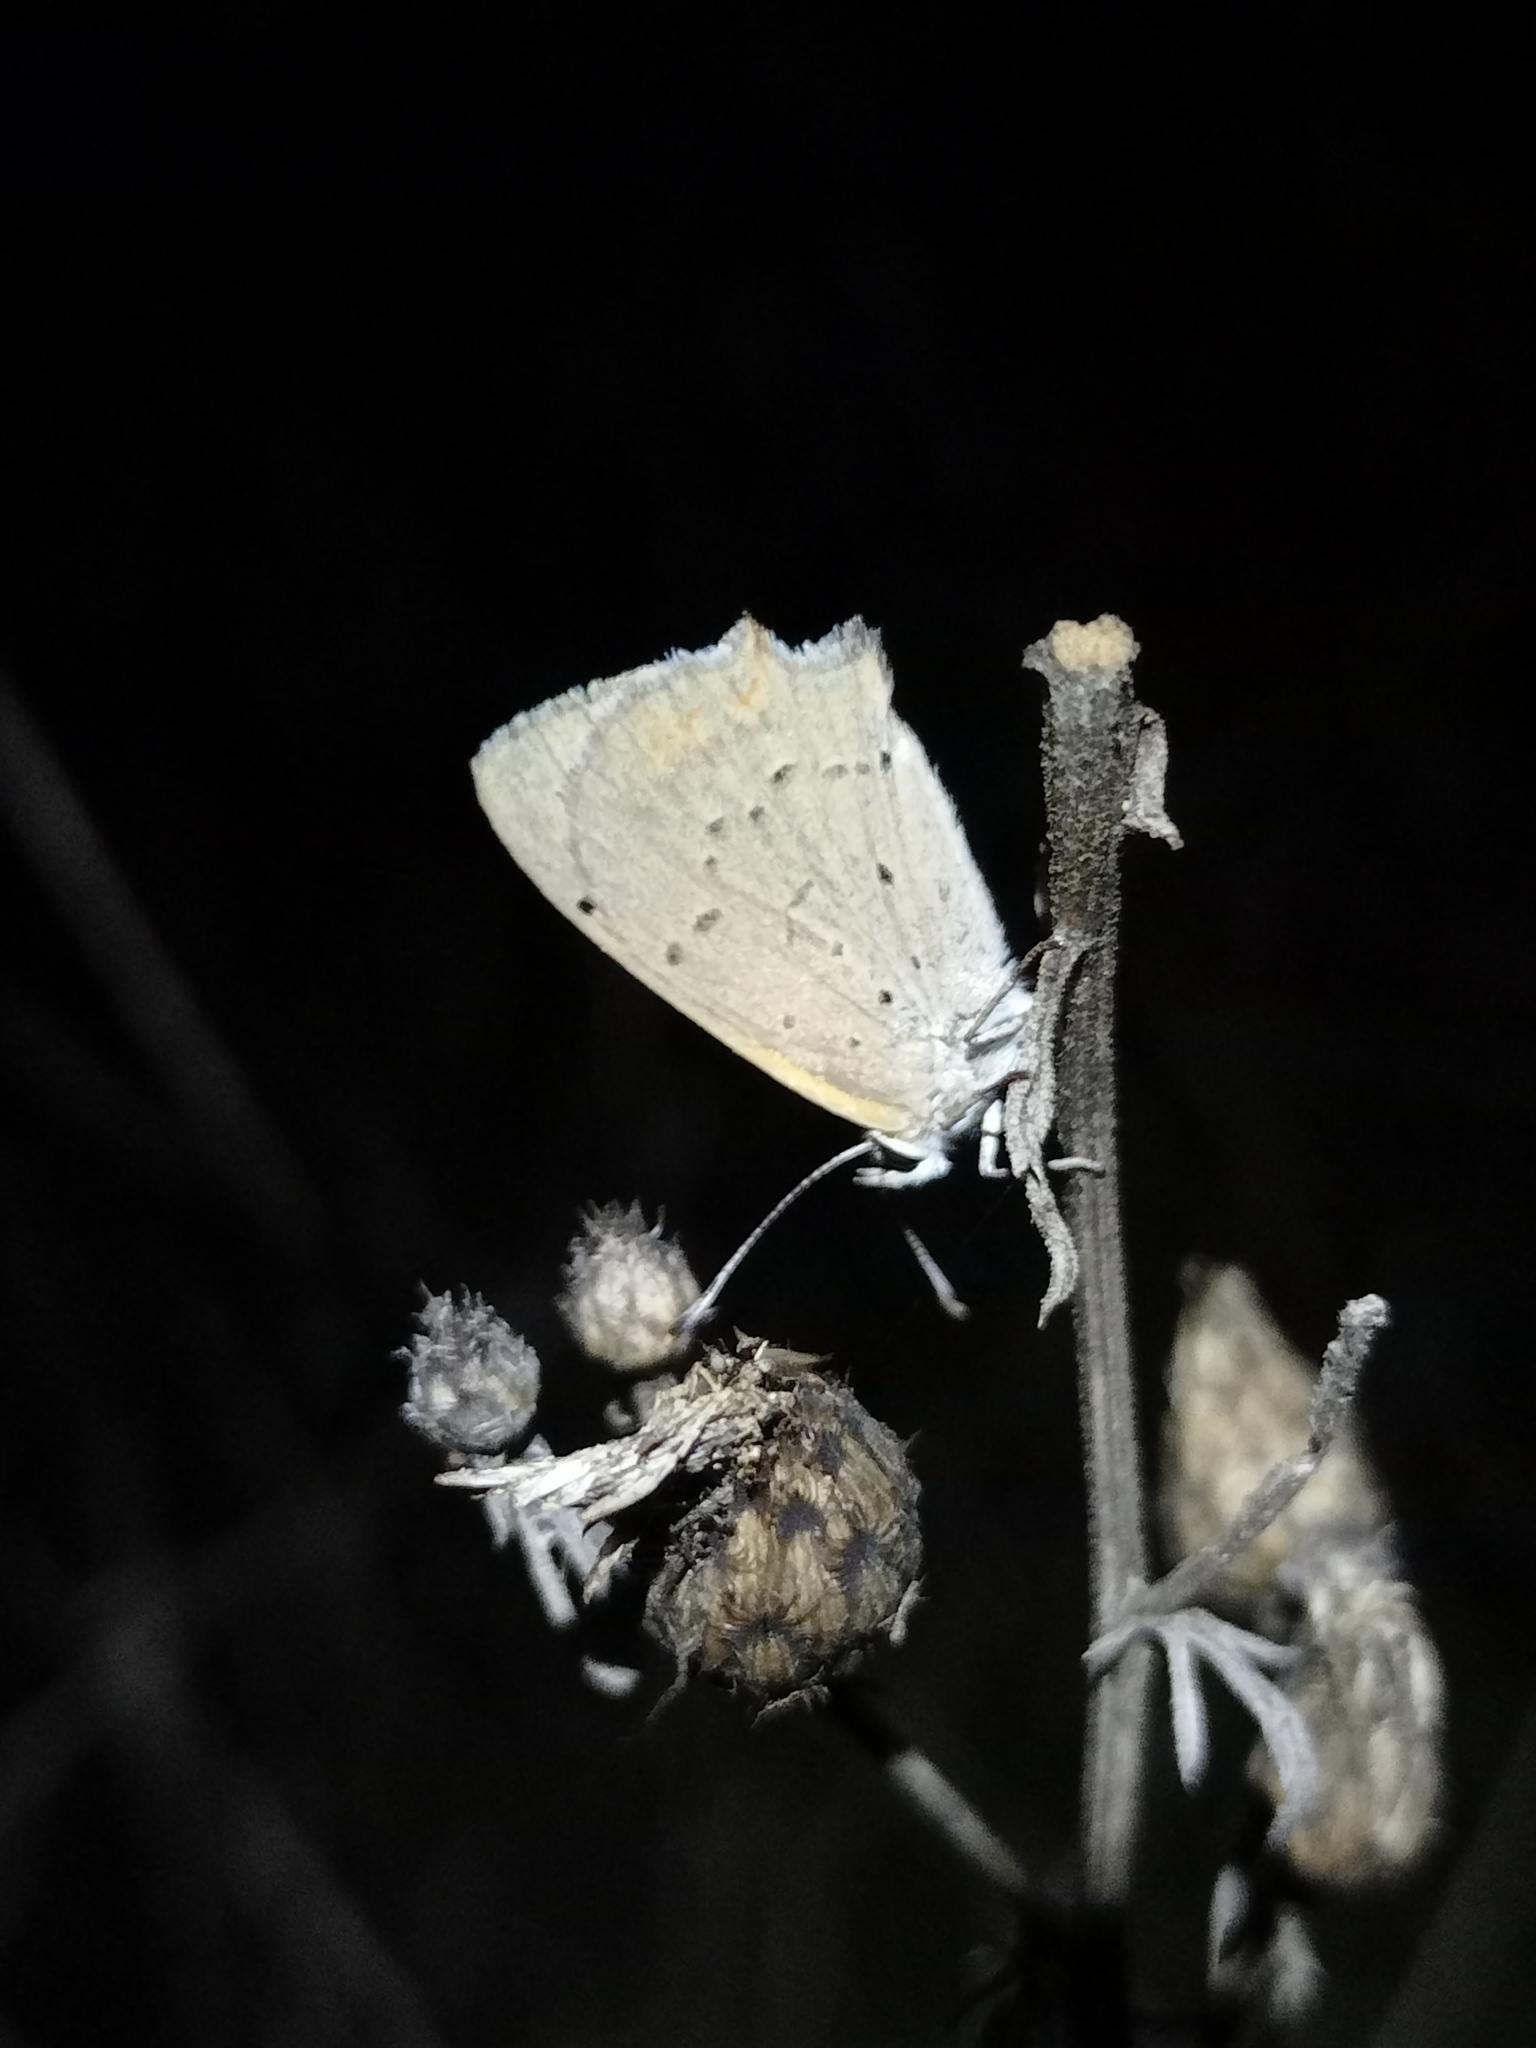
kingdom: Animalia
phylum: Arthropoda
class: Insecta
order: Lepidoptera
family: Lycaenidae
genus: Lycaena
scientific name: Lycaena phlaeas
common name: Small copper
